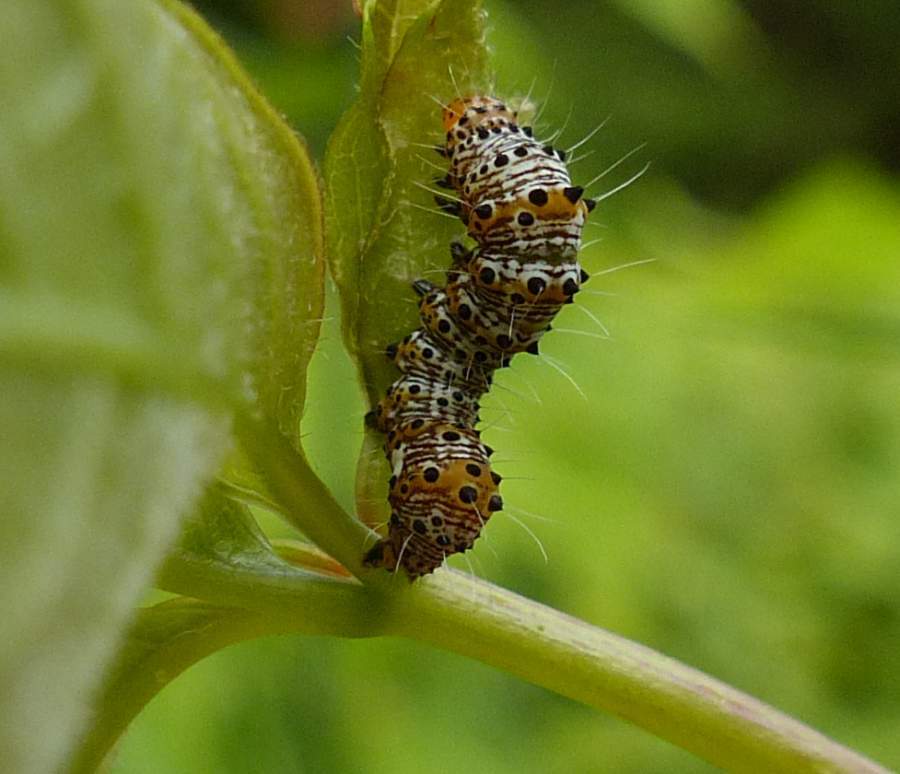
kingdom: Animalia
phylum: Arthropoda
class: Insecta
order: Lepidoptera
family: Noctuidae
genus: Alypia
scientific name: Alypia octomaculata
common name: Eight-spotted forester
